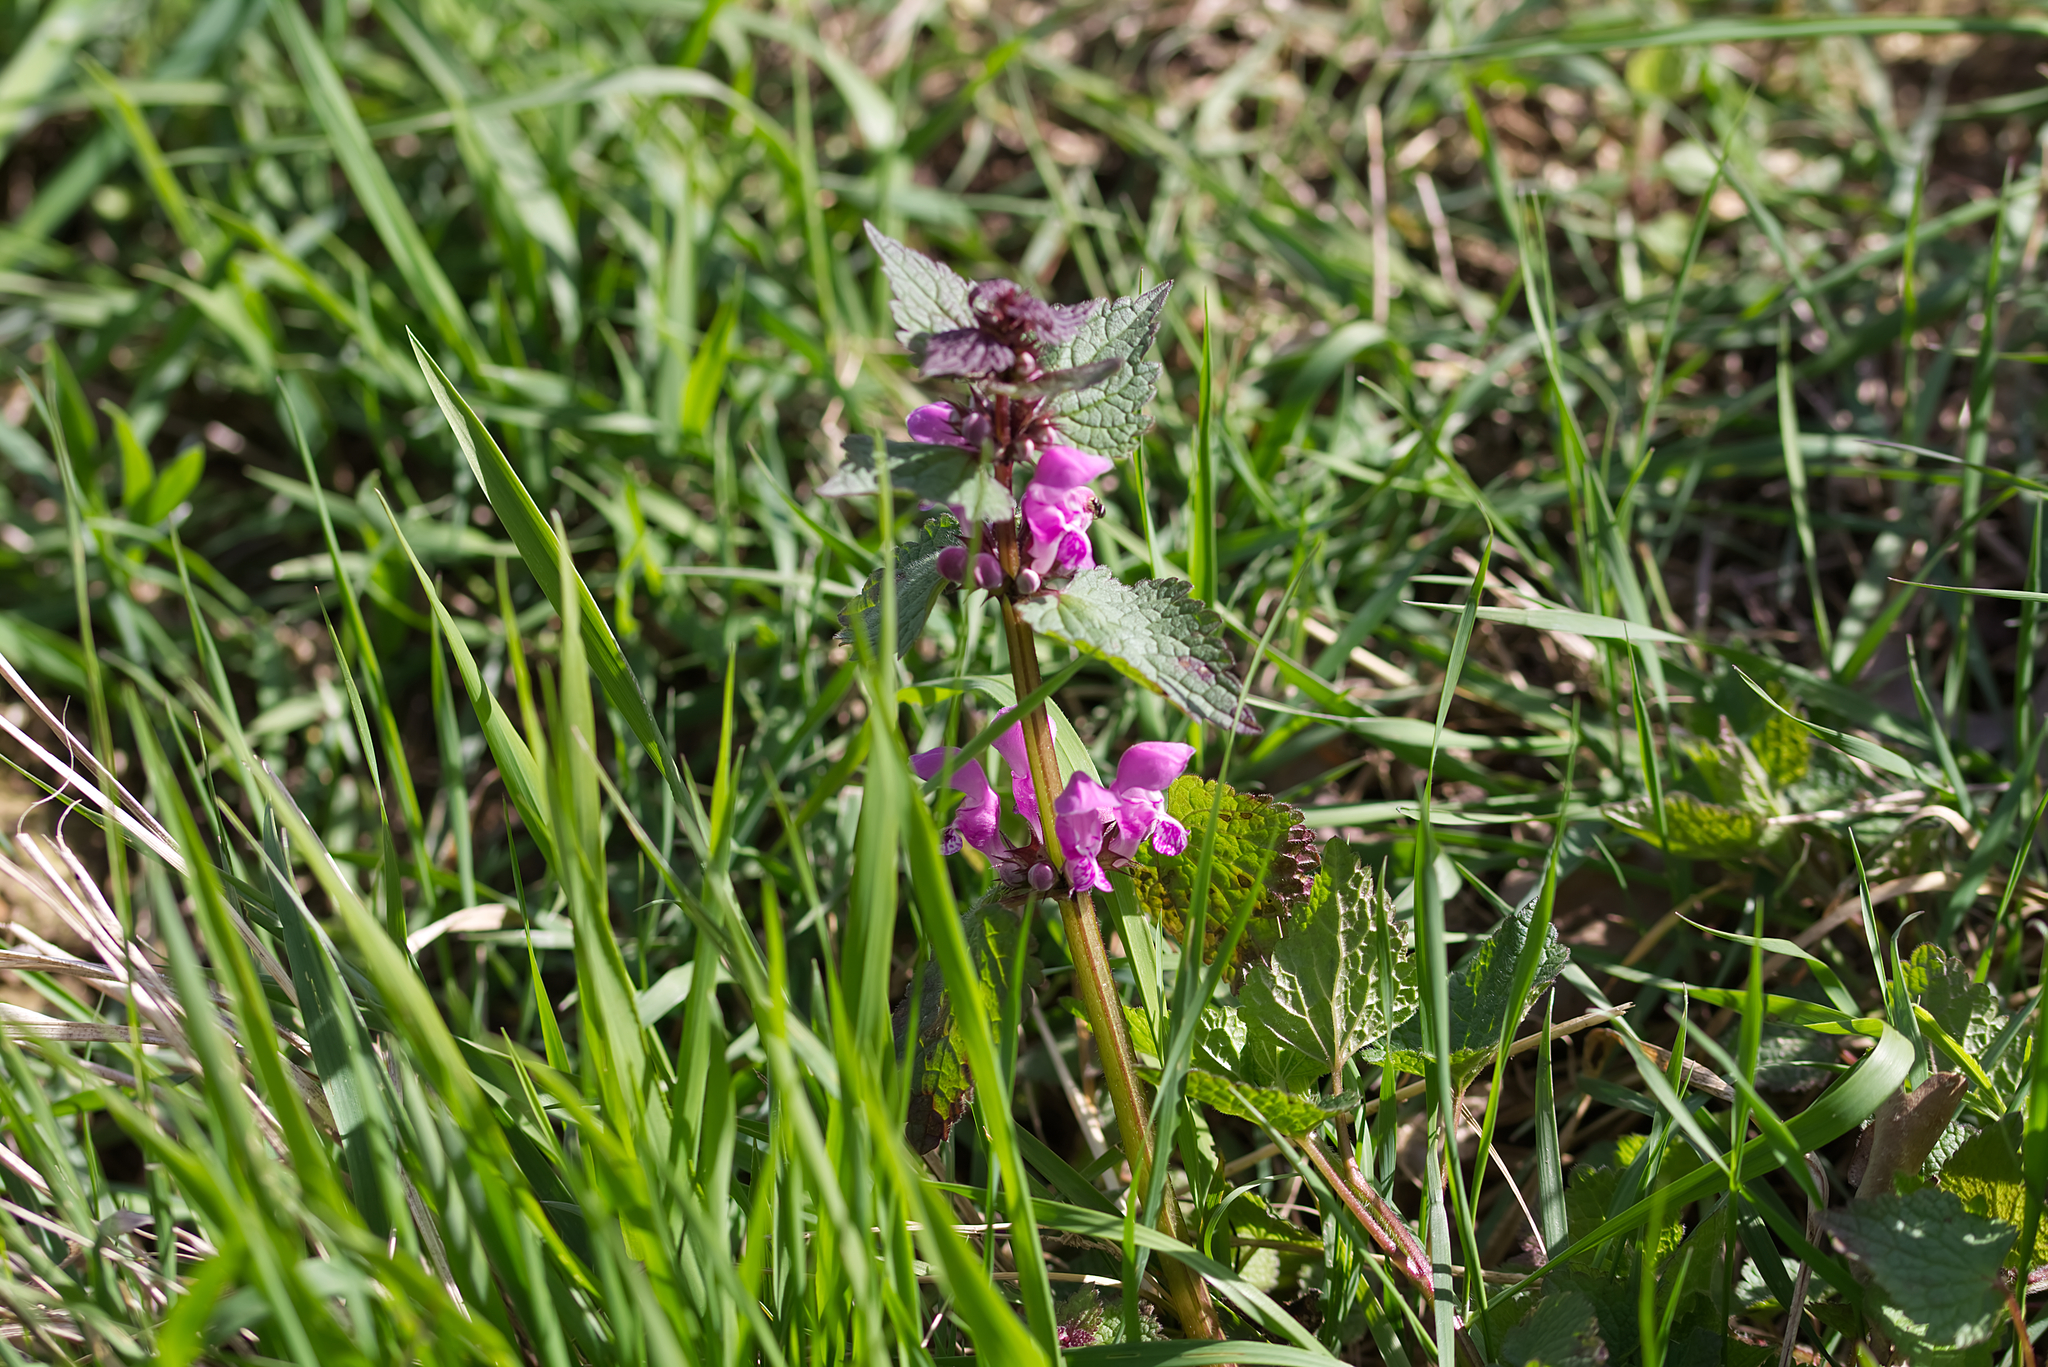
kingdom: Plantae
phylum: Tracheophyta
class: Magnoliopsida
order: Lamiales
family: Lamiaceae
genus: Lamium
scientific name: Lamium maculatum
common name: Spotted dead-nettle
